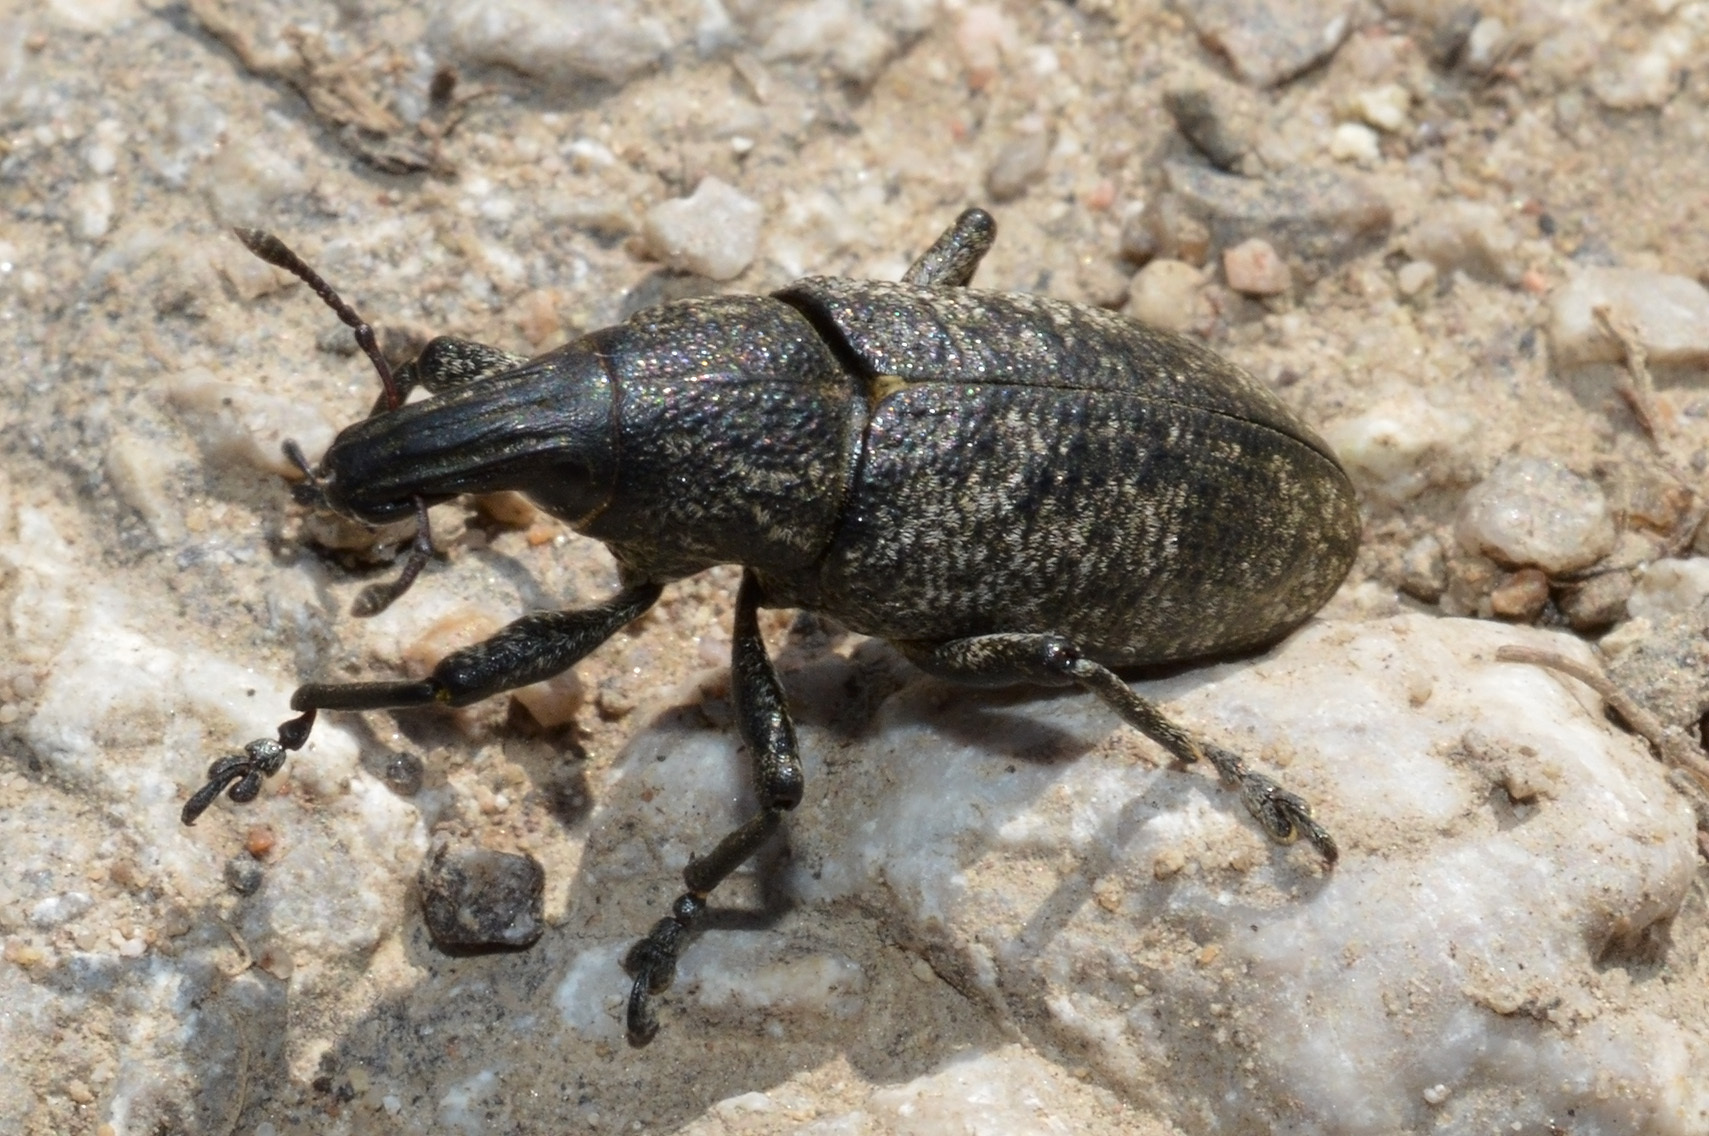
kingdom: Animalia
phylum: Arthropoda
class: Insecta
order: Coleoptera
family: Curculionidae
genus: Cleonis
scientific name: Cleonis pigra
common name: Large thistle weevil
